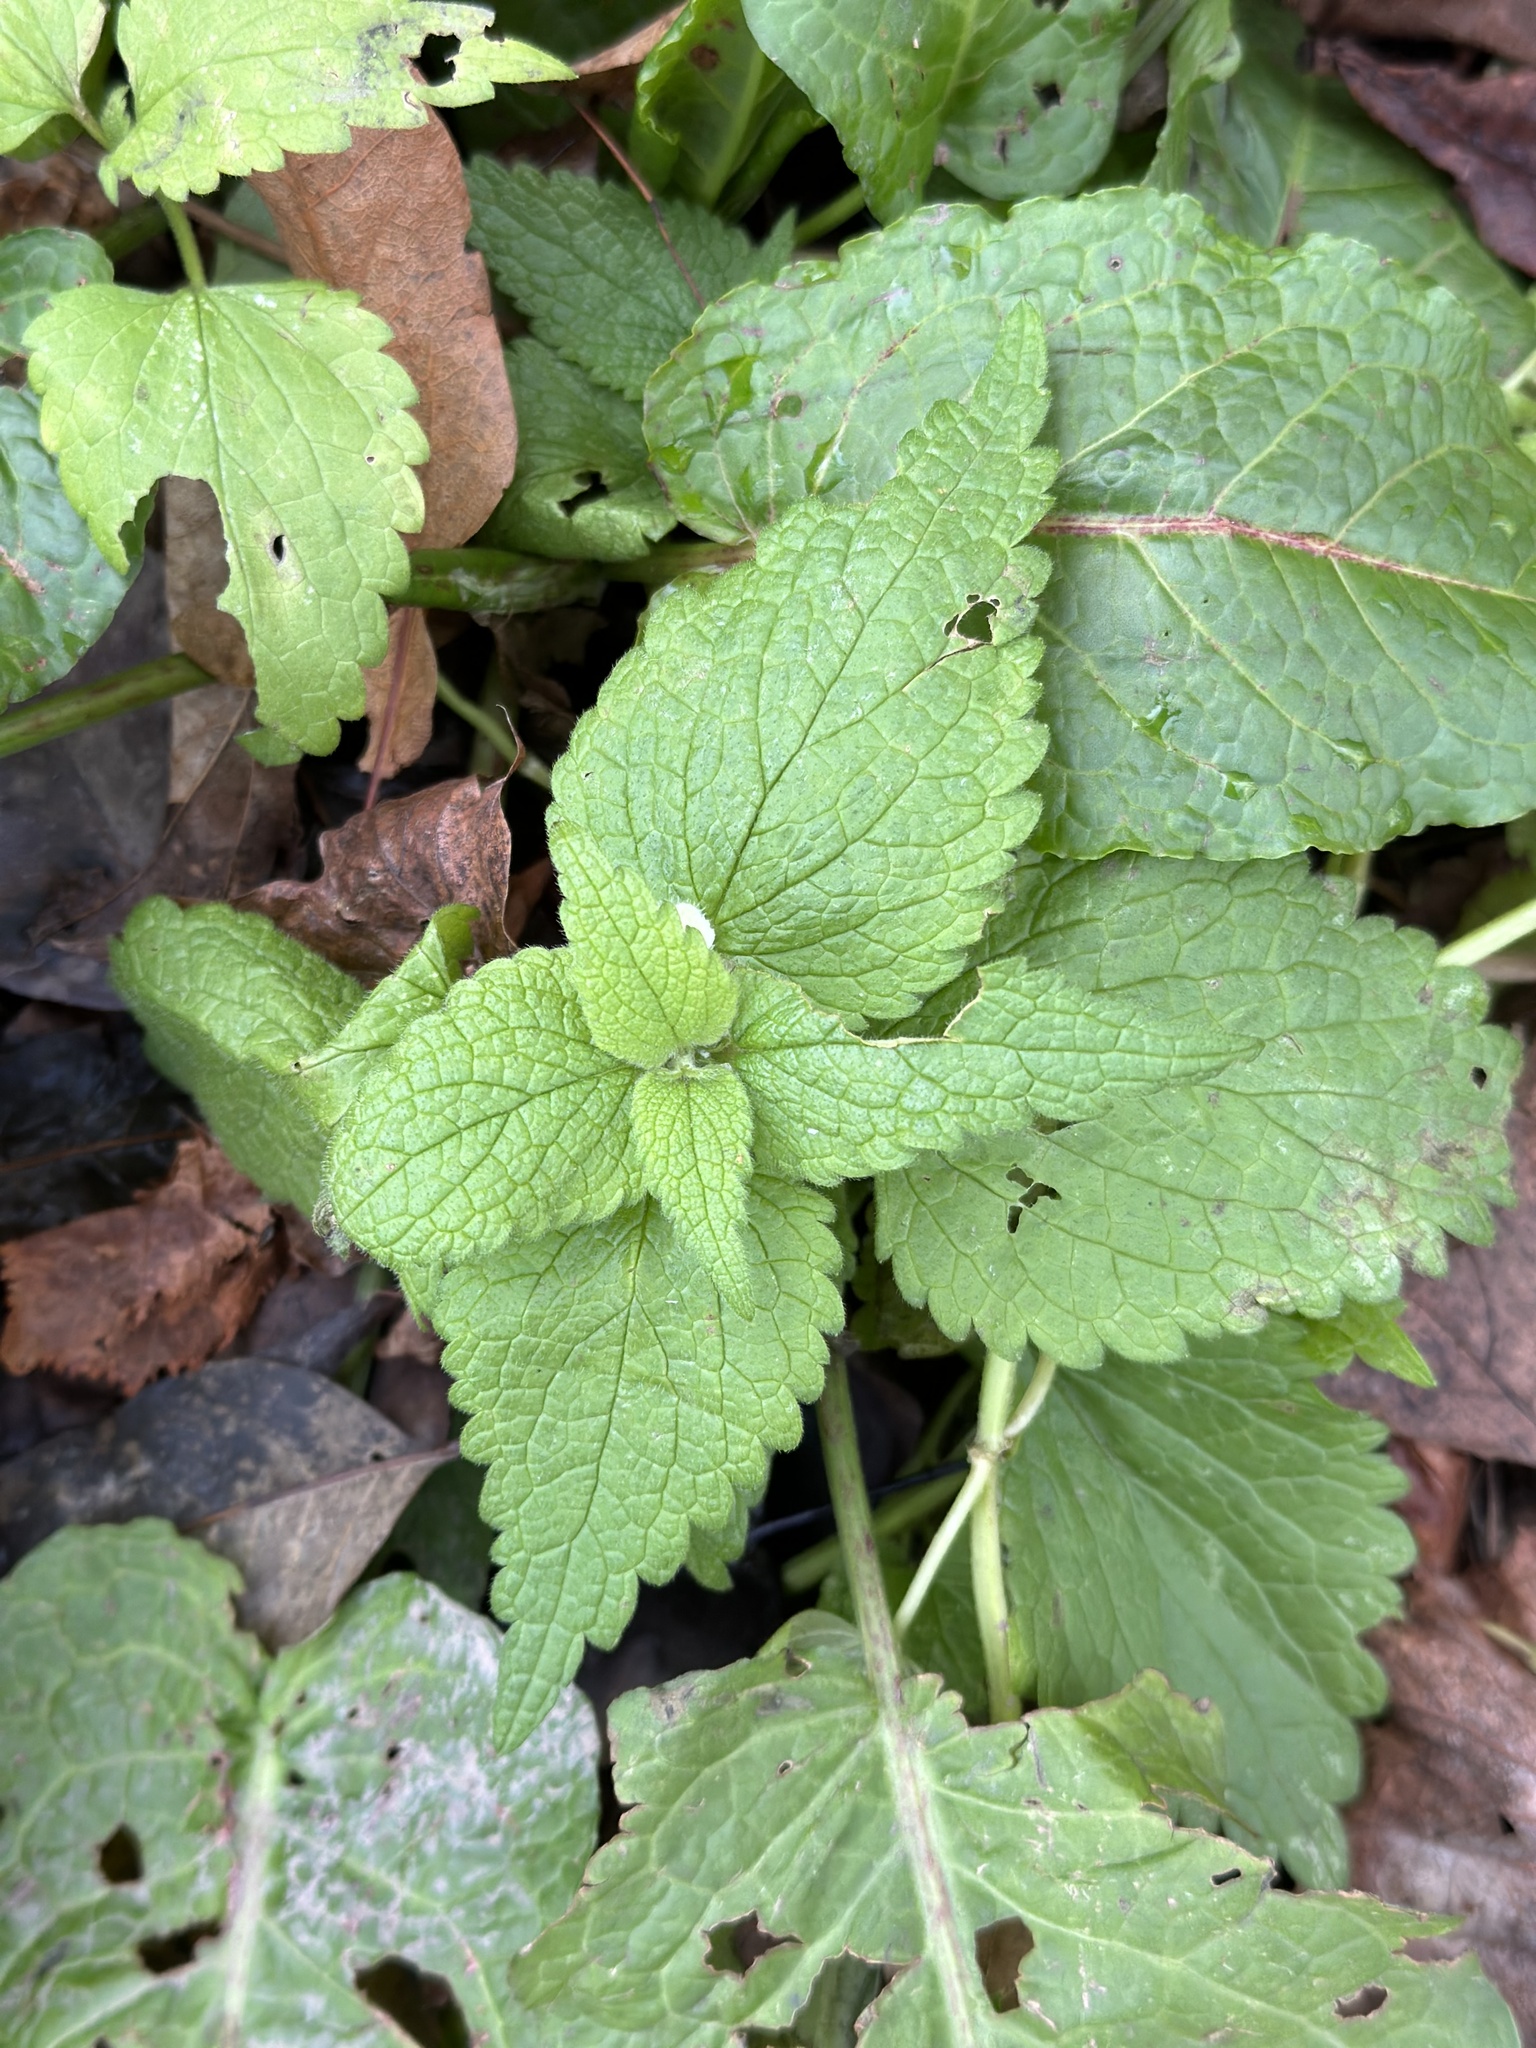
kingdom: Plantae
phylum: Tracheophyta
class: Magnoliopsida
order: Lamiales
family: Lamiaceae
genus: Lamium
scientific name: Lamium album
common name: White dead-nettle
